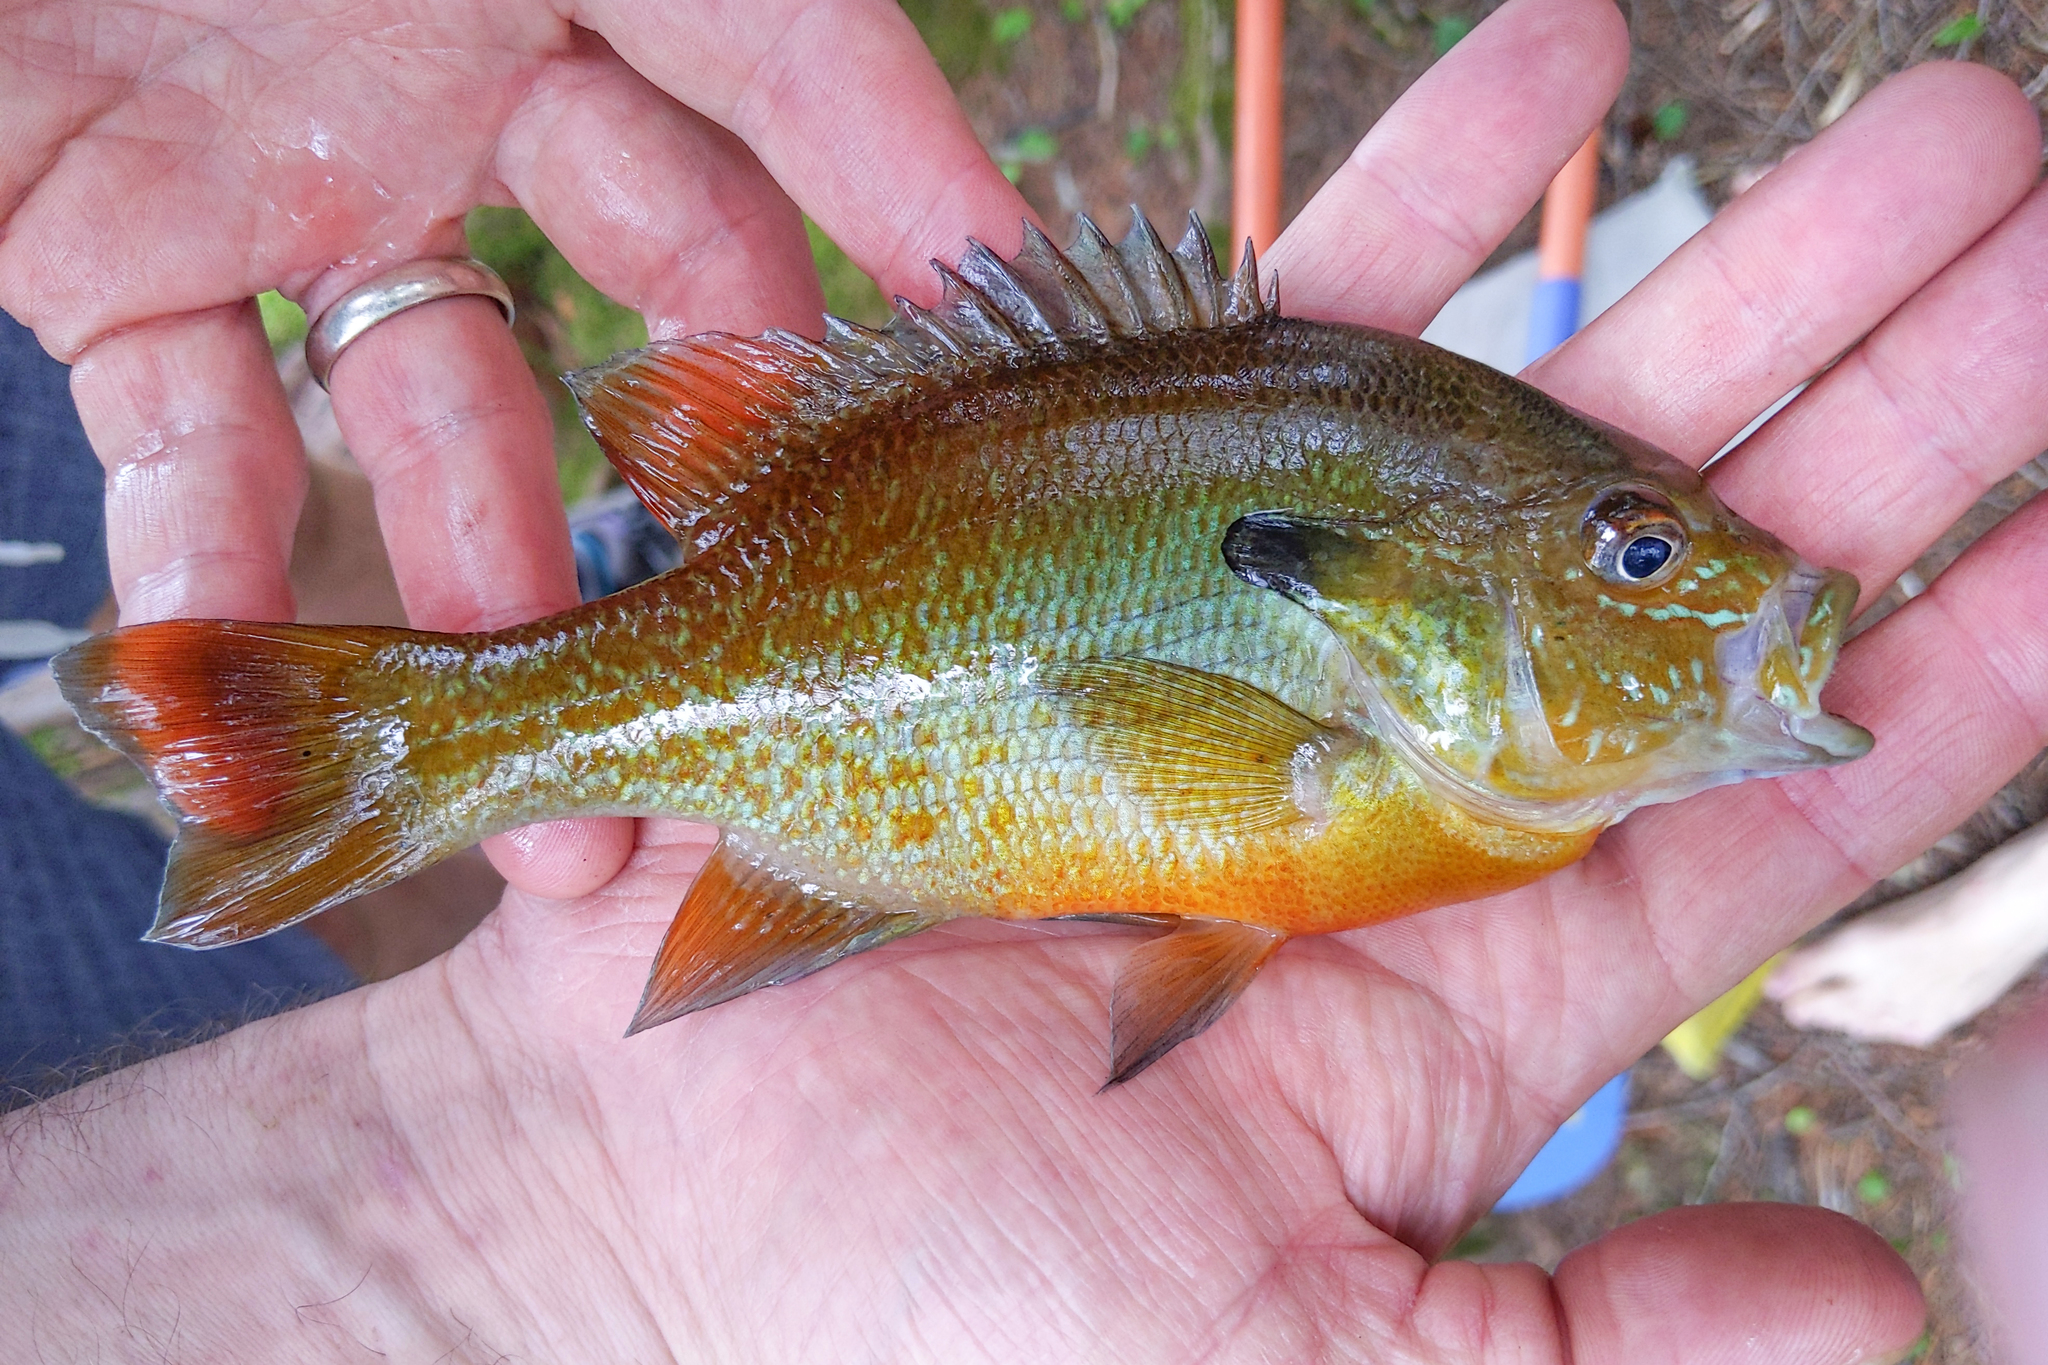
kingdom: Animalia
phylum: Chordata
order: Perciformes
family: Centrarchidae
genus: Lepomis
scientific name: Lepomis auritus
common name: Redbreast sunfish
